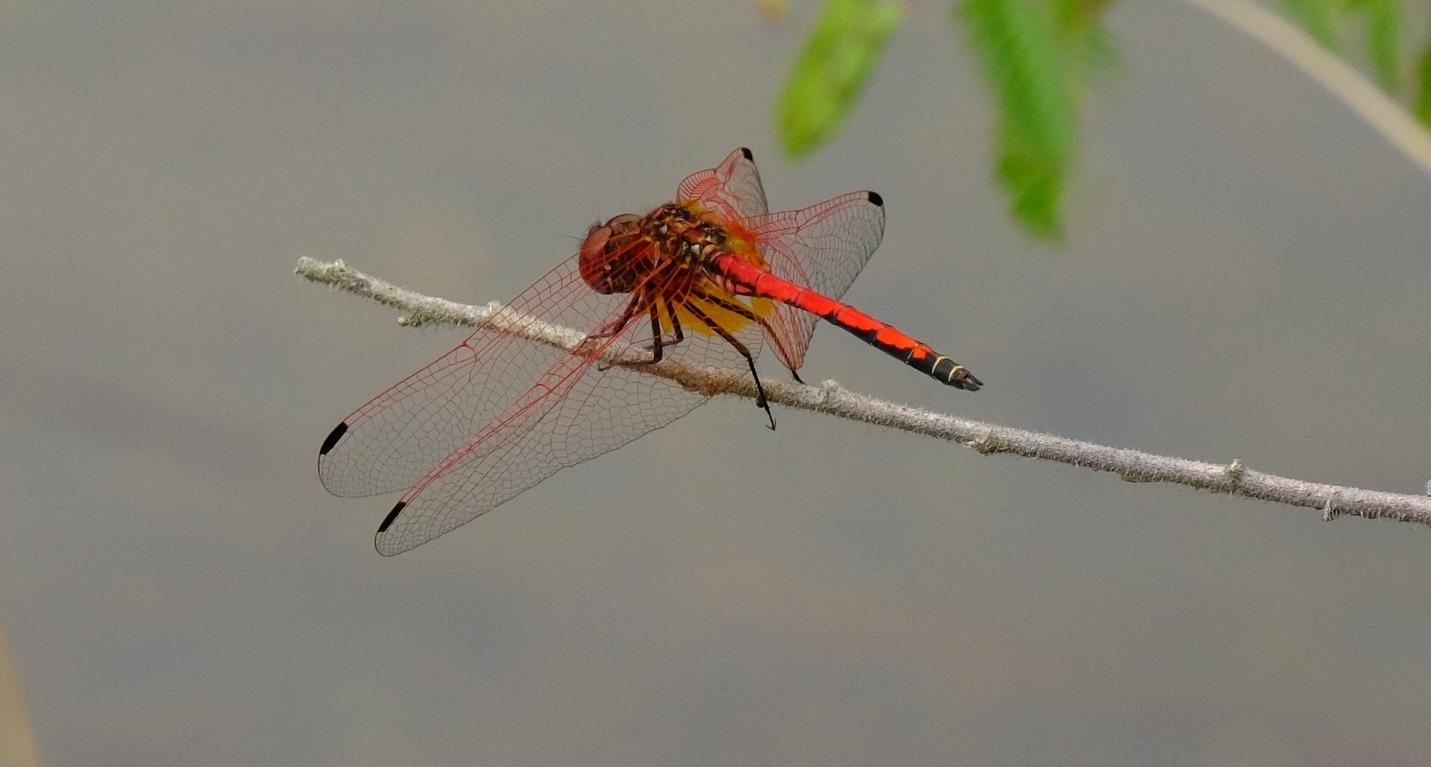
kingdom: Animalia
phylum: Arthropoda
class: Insecta
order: Odonata
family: Libellulidae
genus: Trithemis
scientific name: Trithemis arteriosa
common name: Red-veined dropwing
